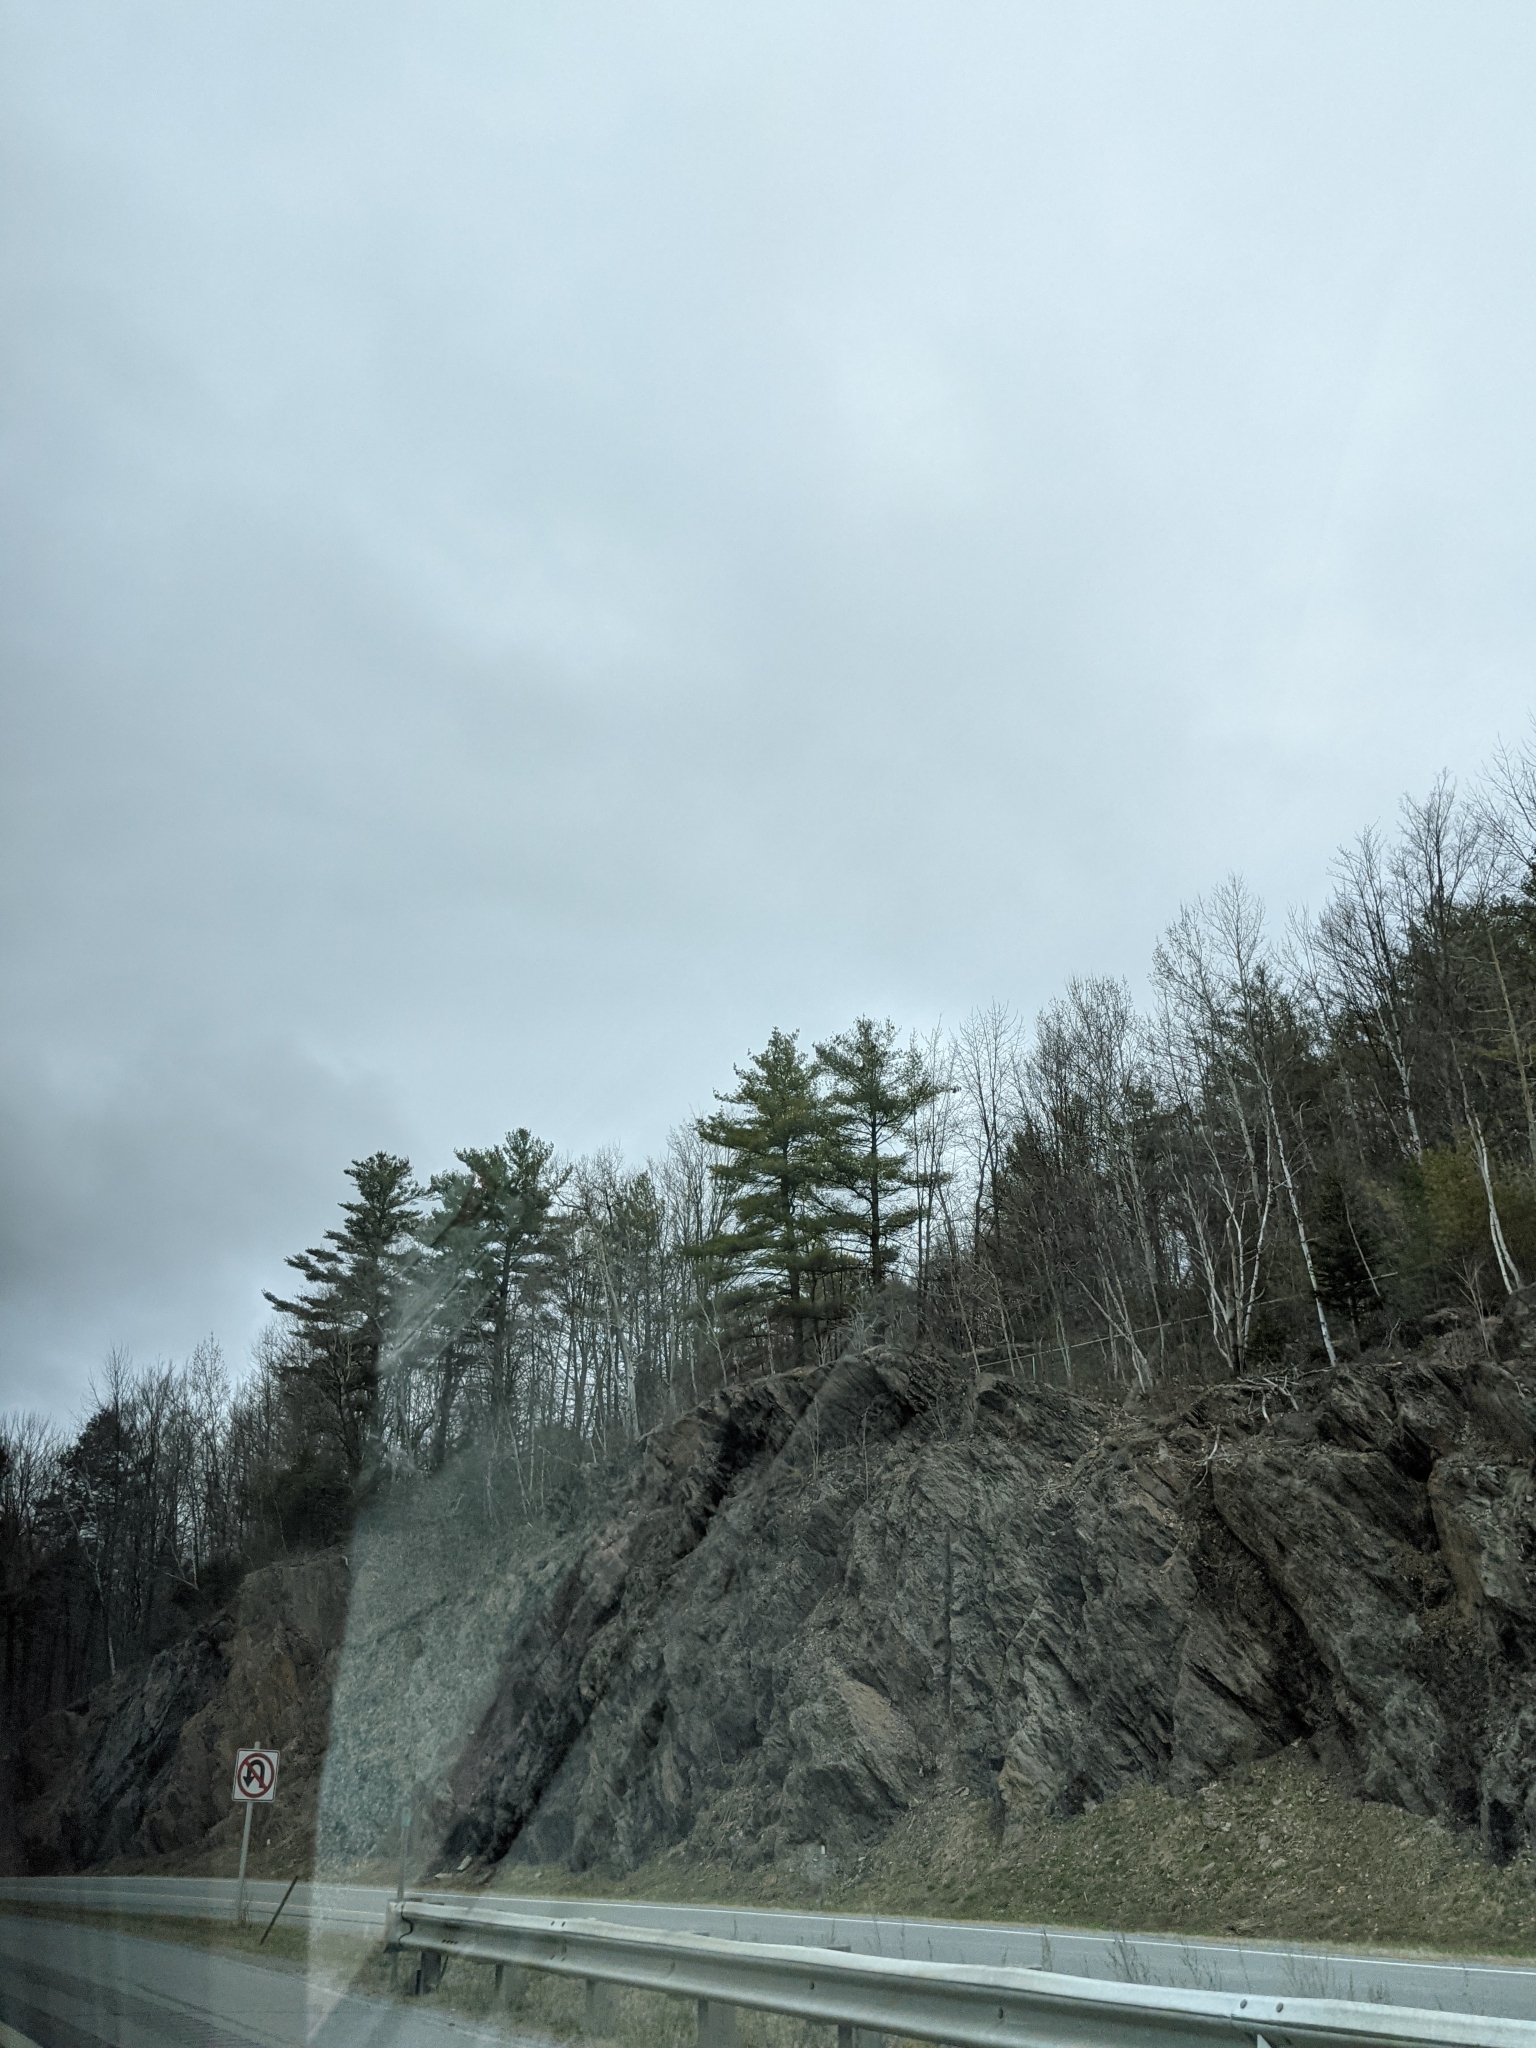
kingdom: Plantae
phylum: Tracheophyta
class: Pinopsida
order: Pinales
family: Pinaceae
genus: Pinus
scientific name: Pinus strobus
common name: Weymouth pine
